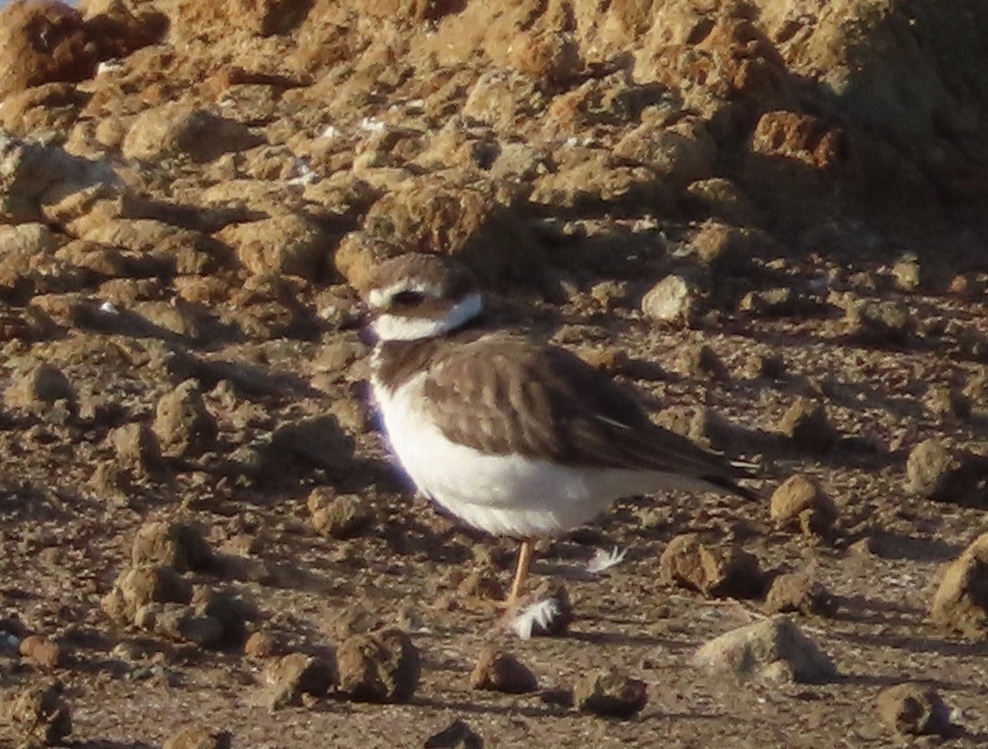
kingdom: Animalia
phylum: Chordata
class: Aves
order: Charadriiformes
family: Charadriidae
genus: Charadrius
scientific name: Charadrius hiaticula
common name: Common ringed plover
